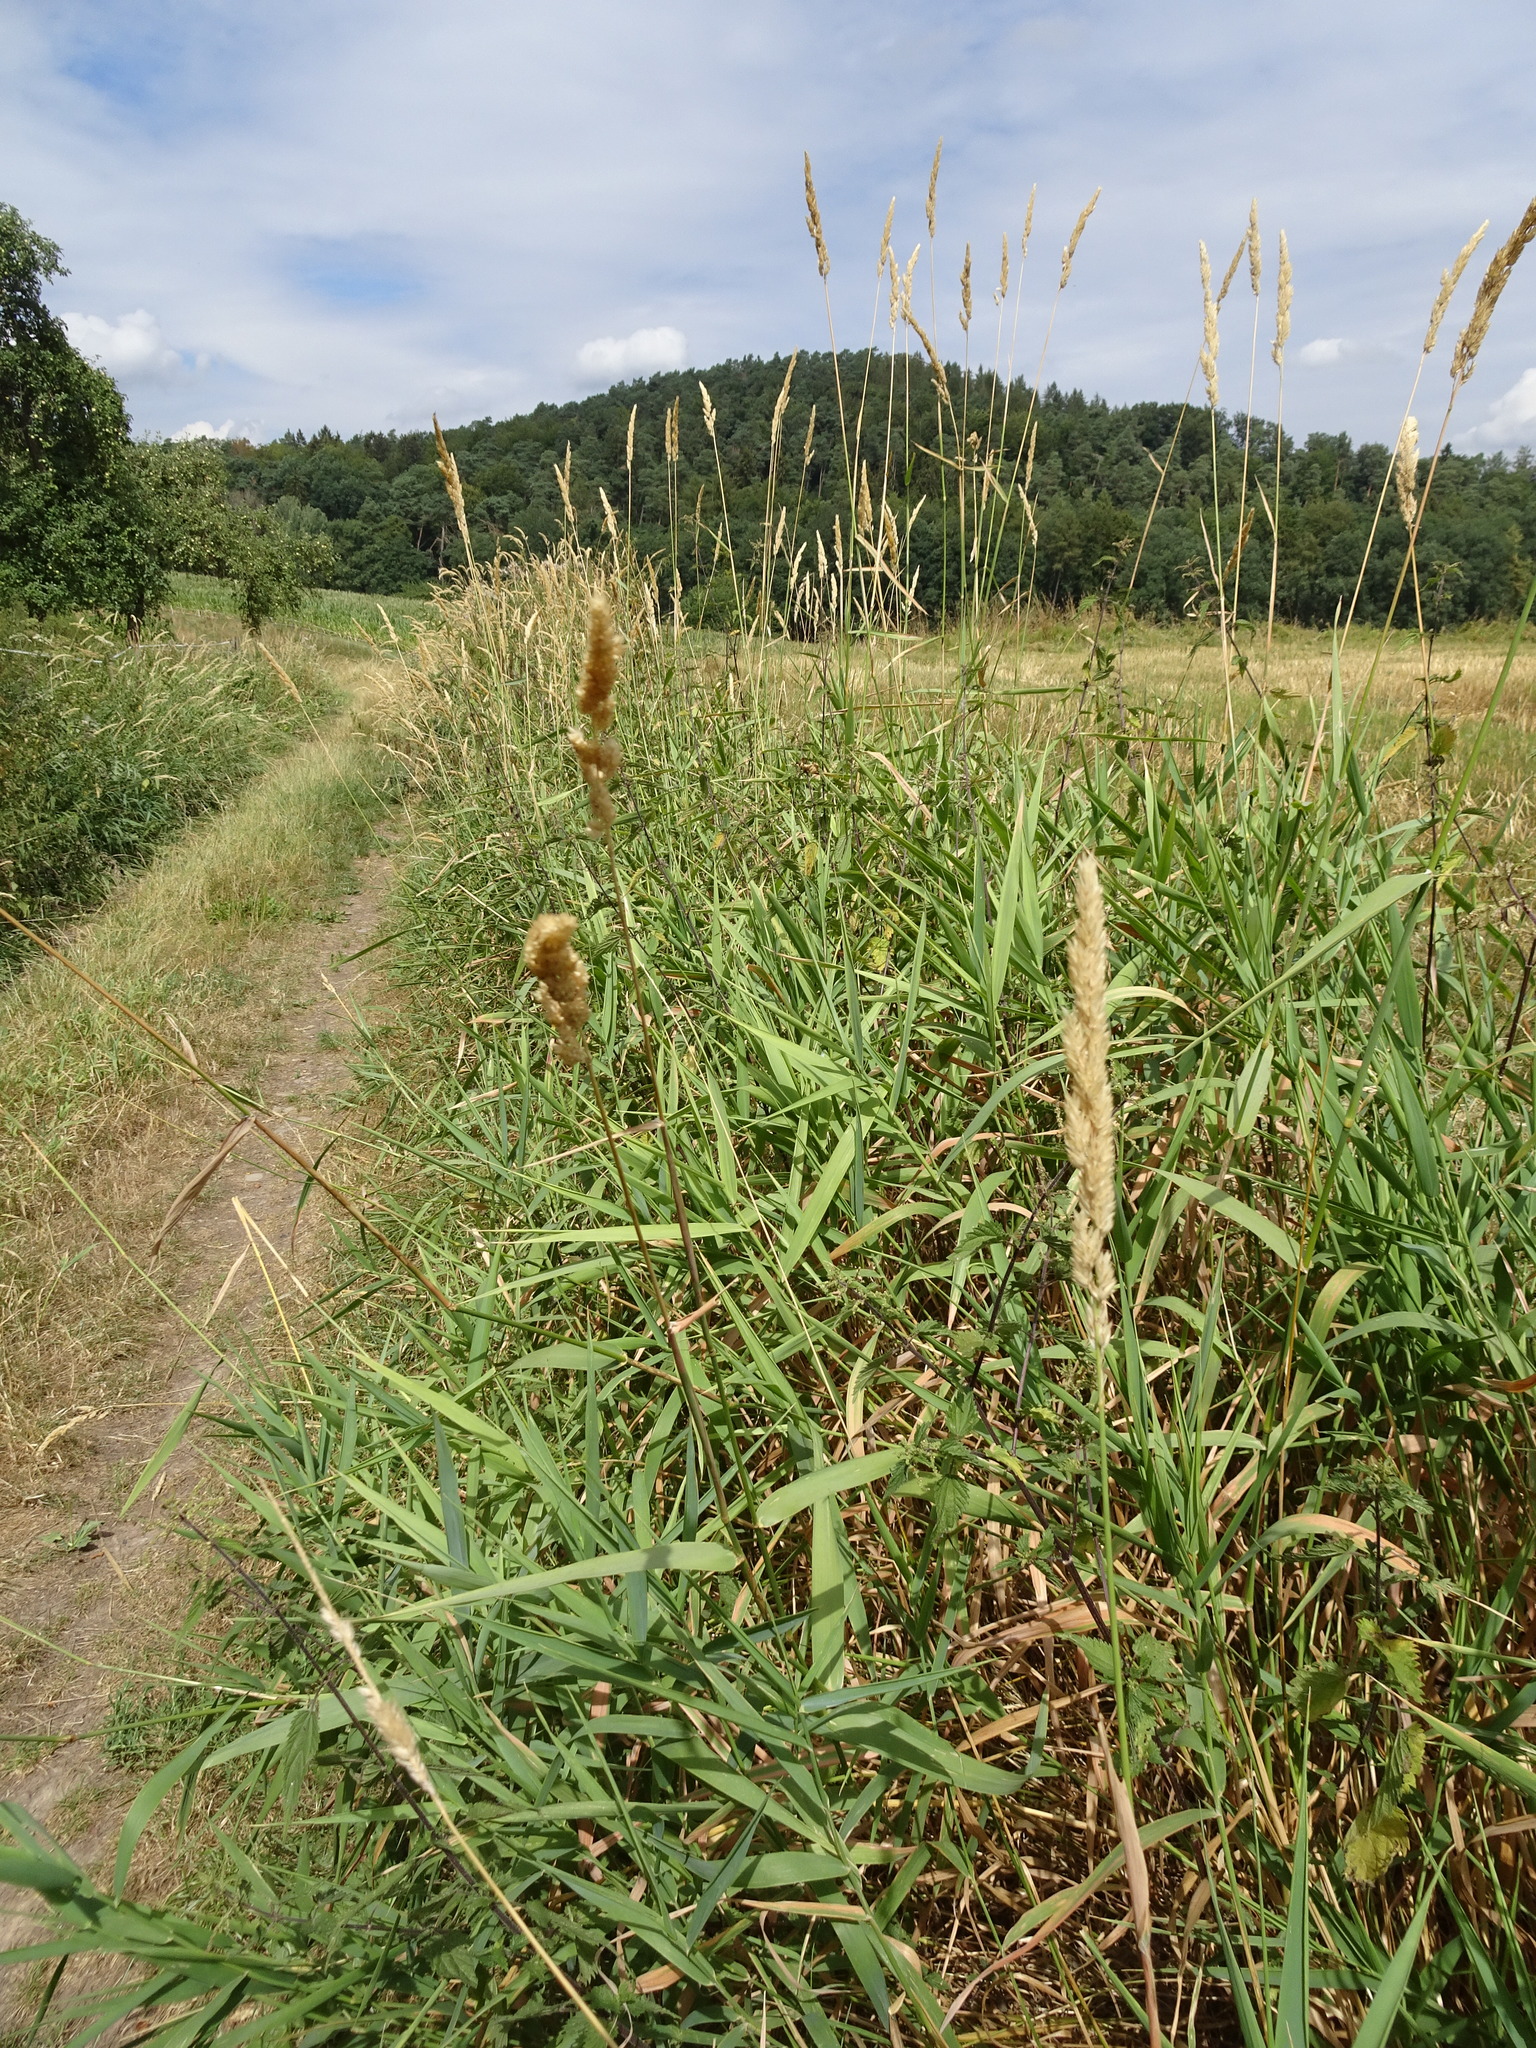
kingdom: Plantae
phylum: Tracheophyta
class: Liliopsida
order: Poales
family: Poaceae
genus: Phalaris
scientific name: Phalaris arundinacea
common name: Reed canary-grass
